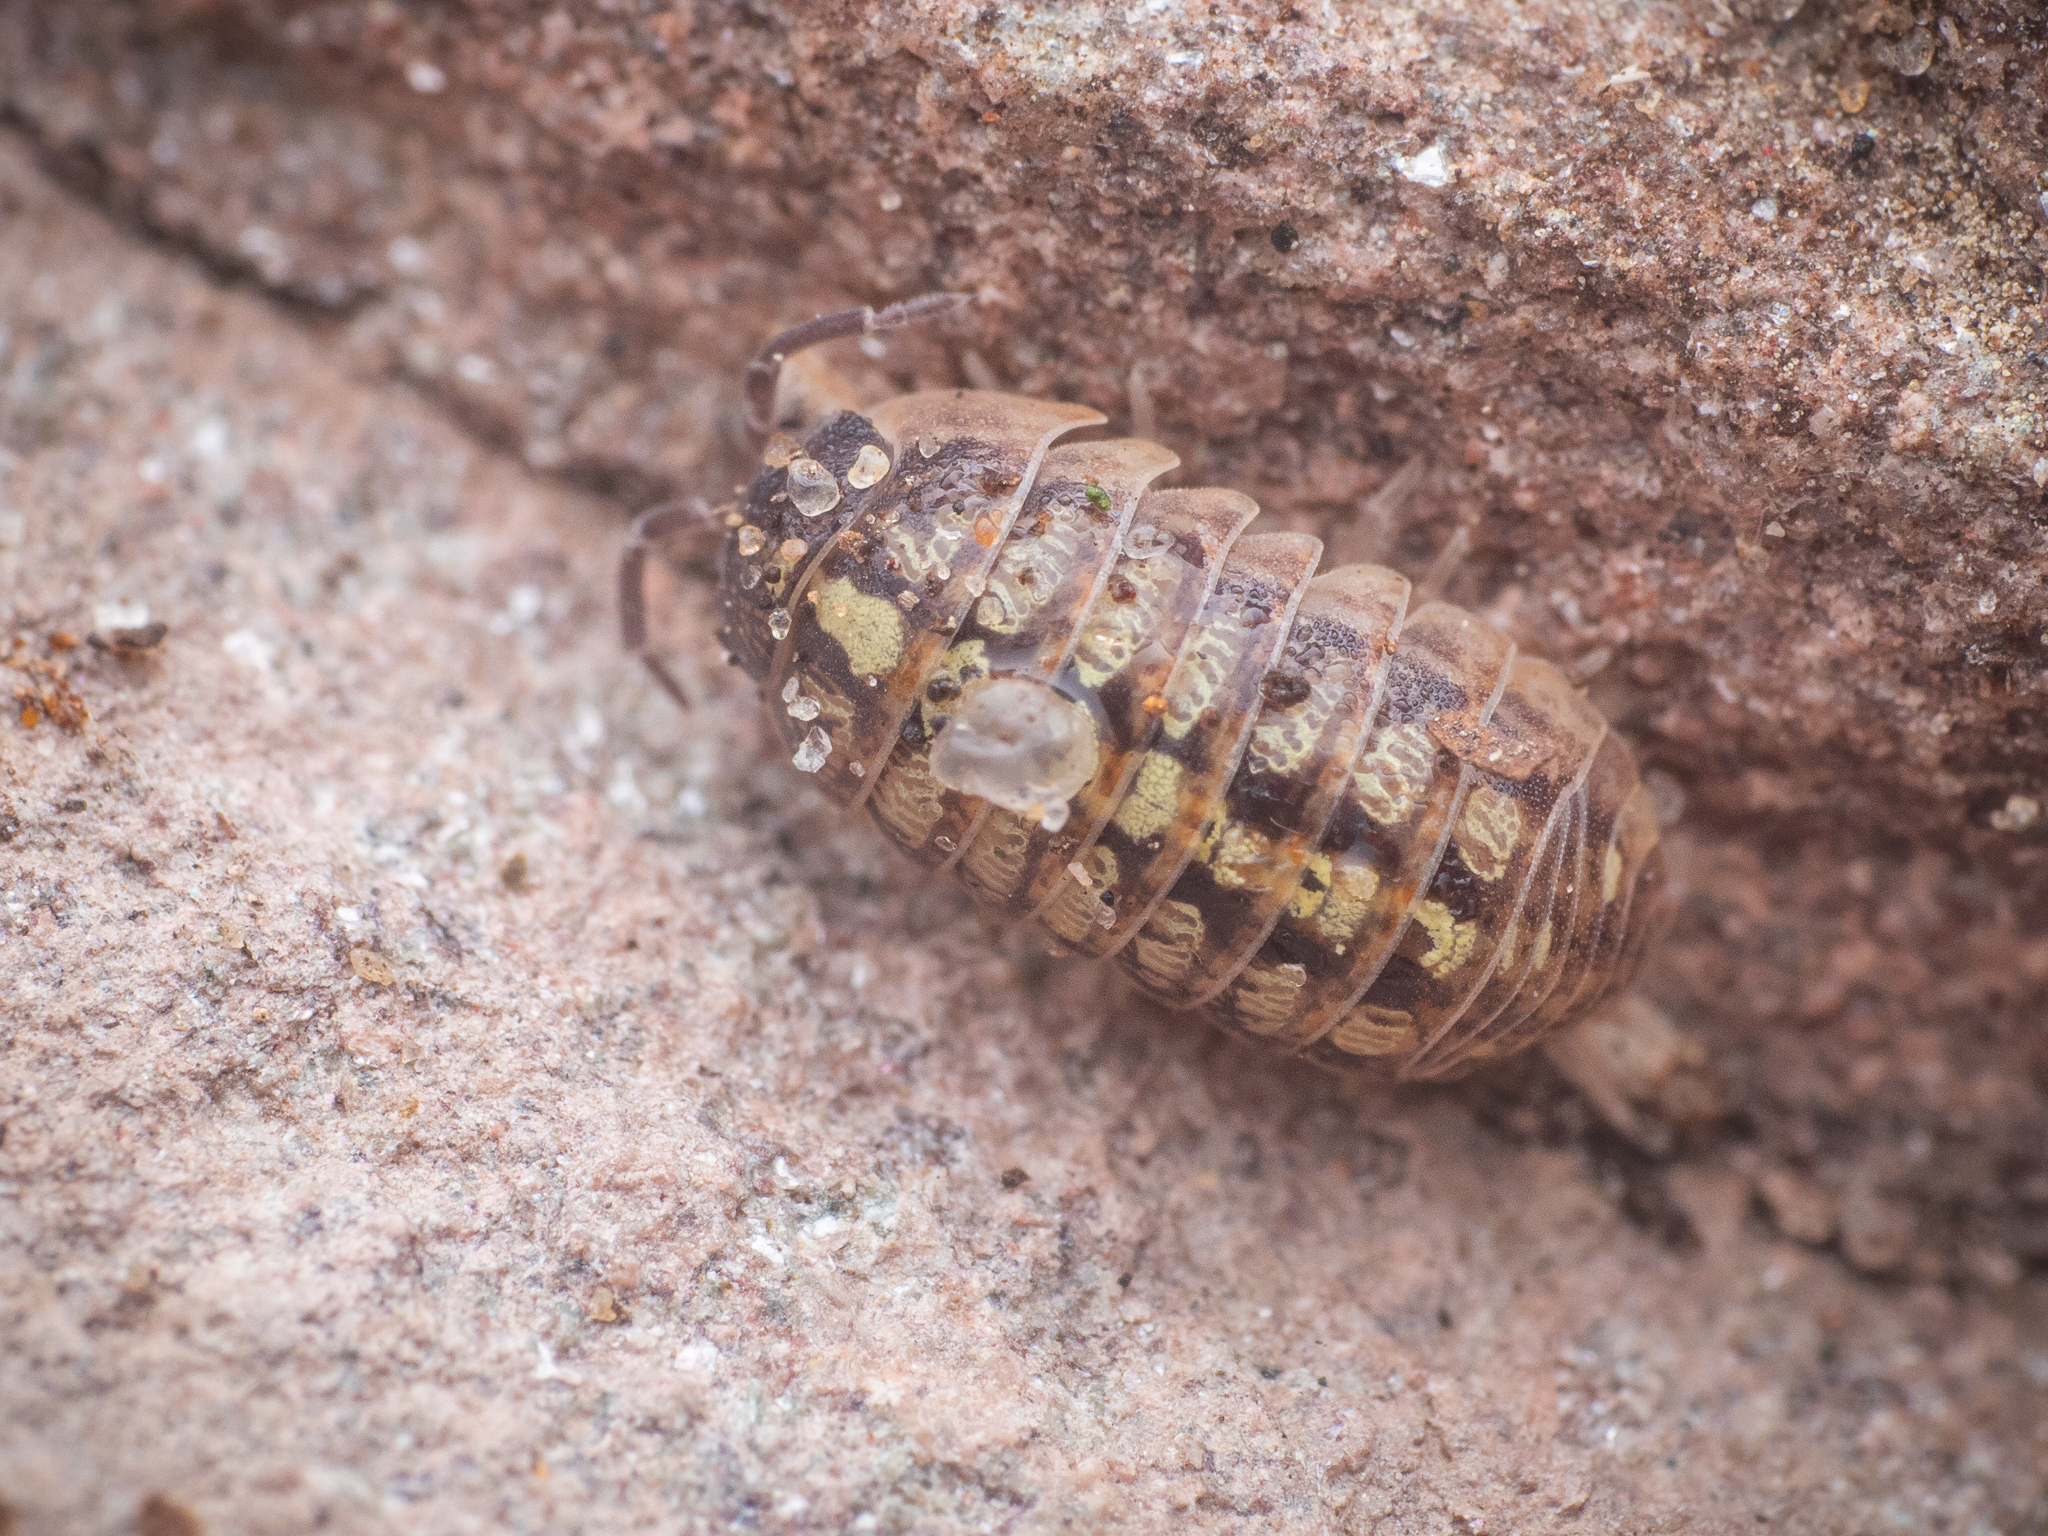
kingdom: Animalia
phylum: Arthropoda
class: Malacostraca
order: Isopoda
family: Armadillidiidae
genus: Armadillidium
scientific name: Armadillidium vulgare
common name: Common pill woodlouse
